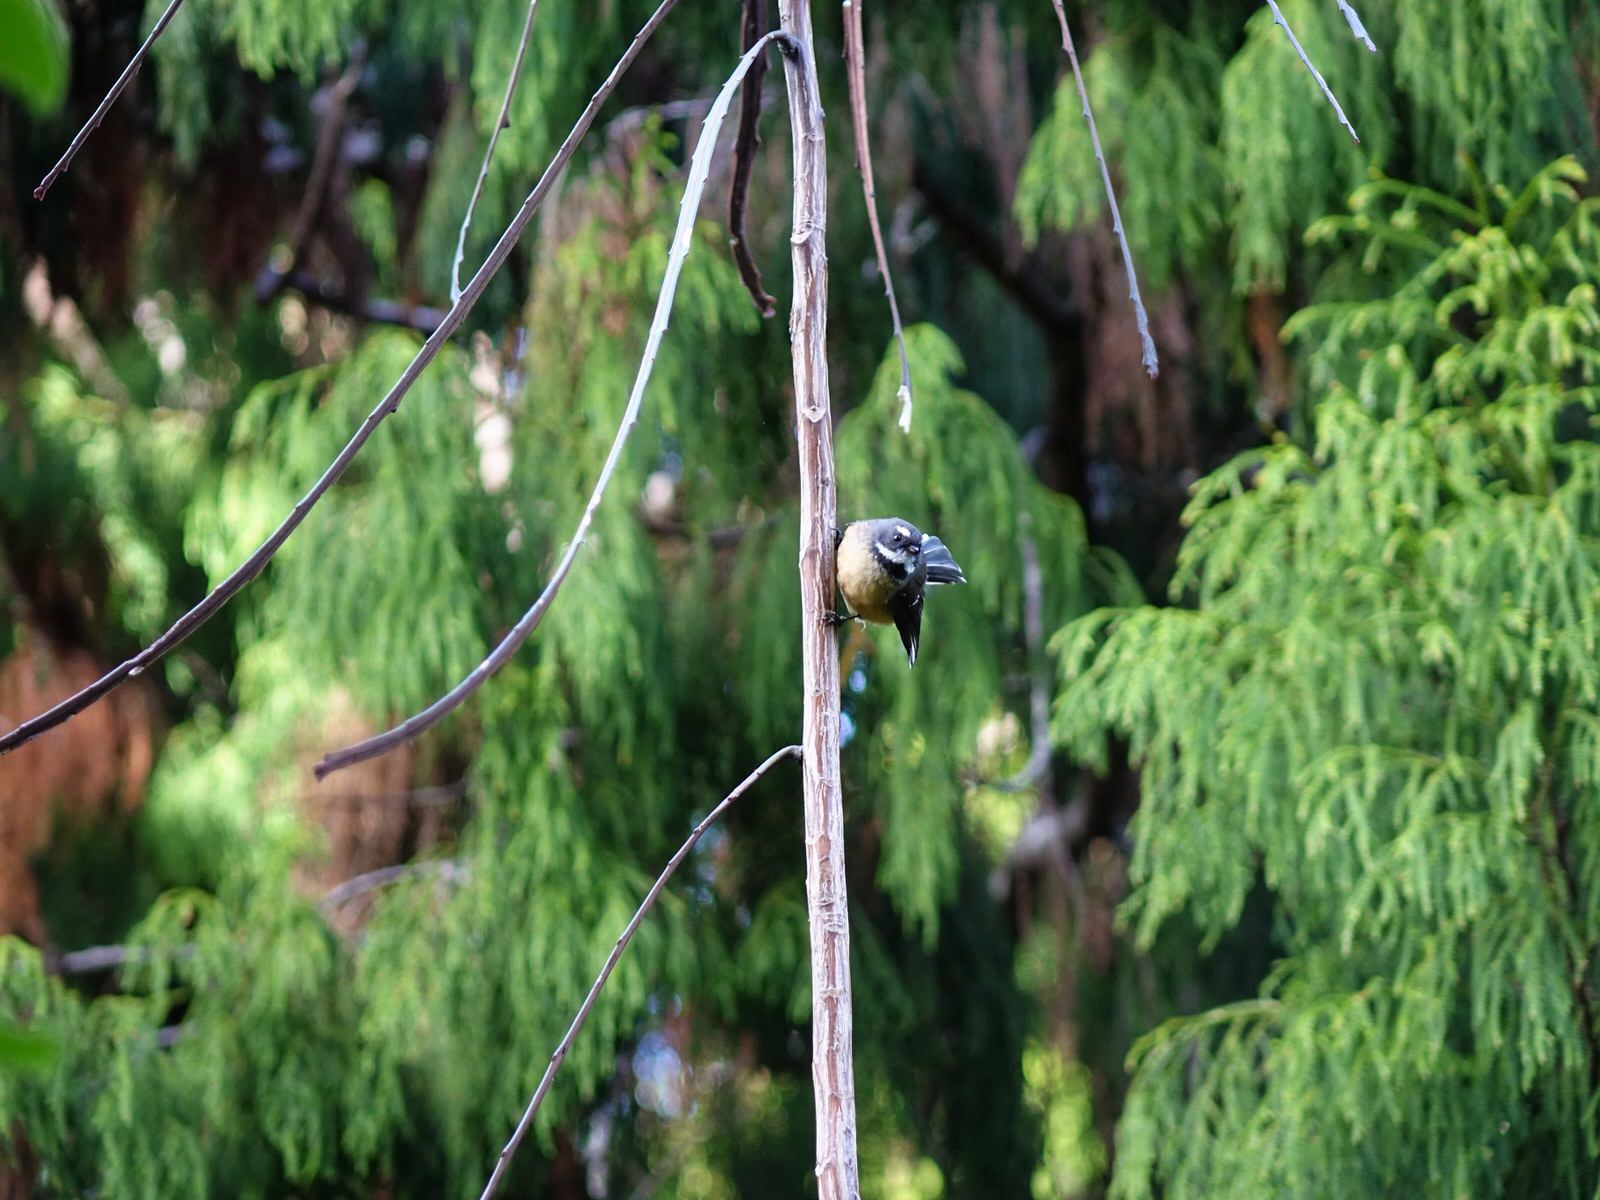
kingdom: Animalia
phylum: Chordata
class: Aves
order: Passeriformes
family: Rhipiduridae
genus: Rhipidura
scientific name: Rhipidura fuliginosa
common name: New zealand fantail
